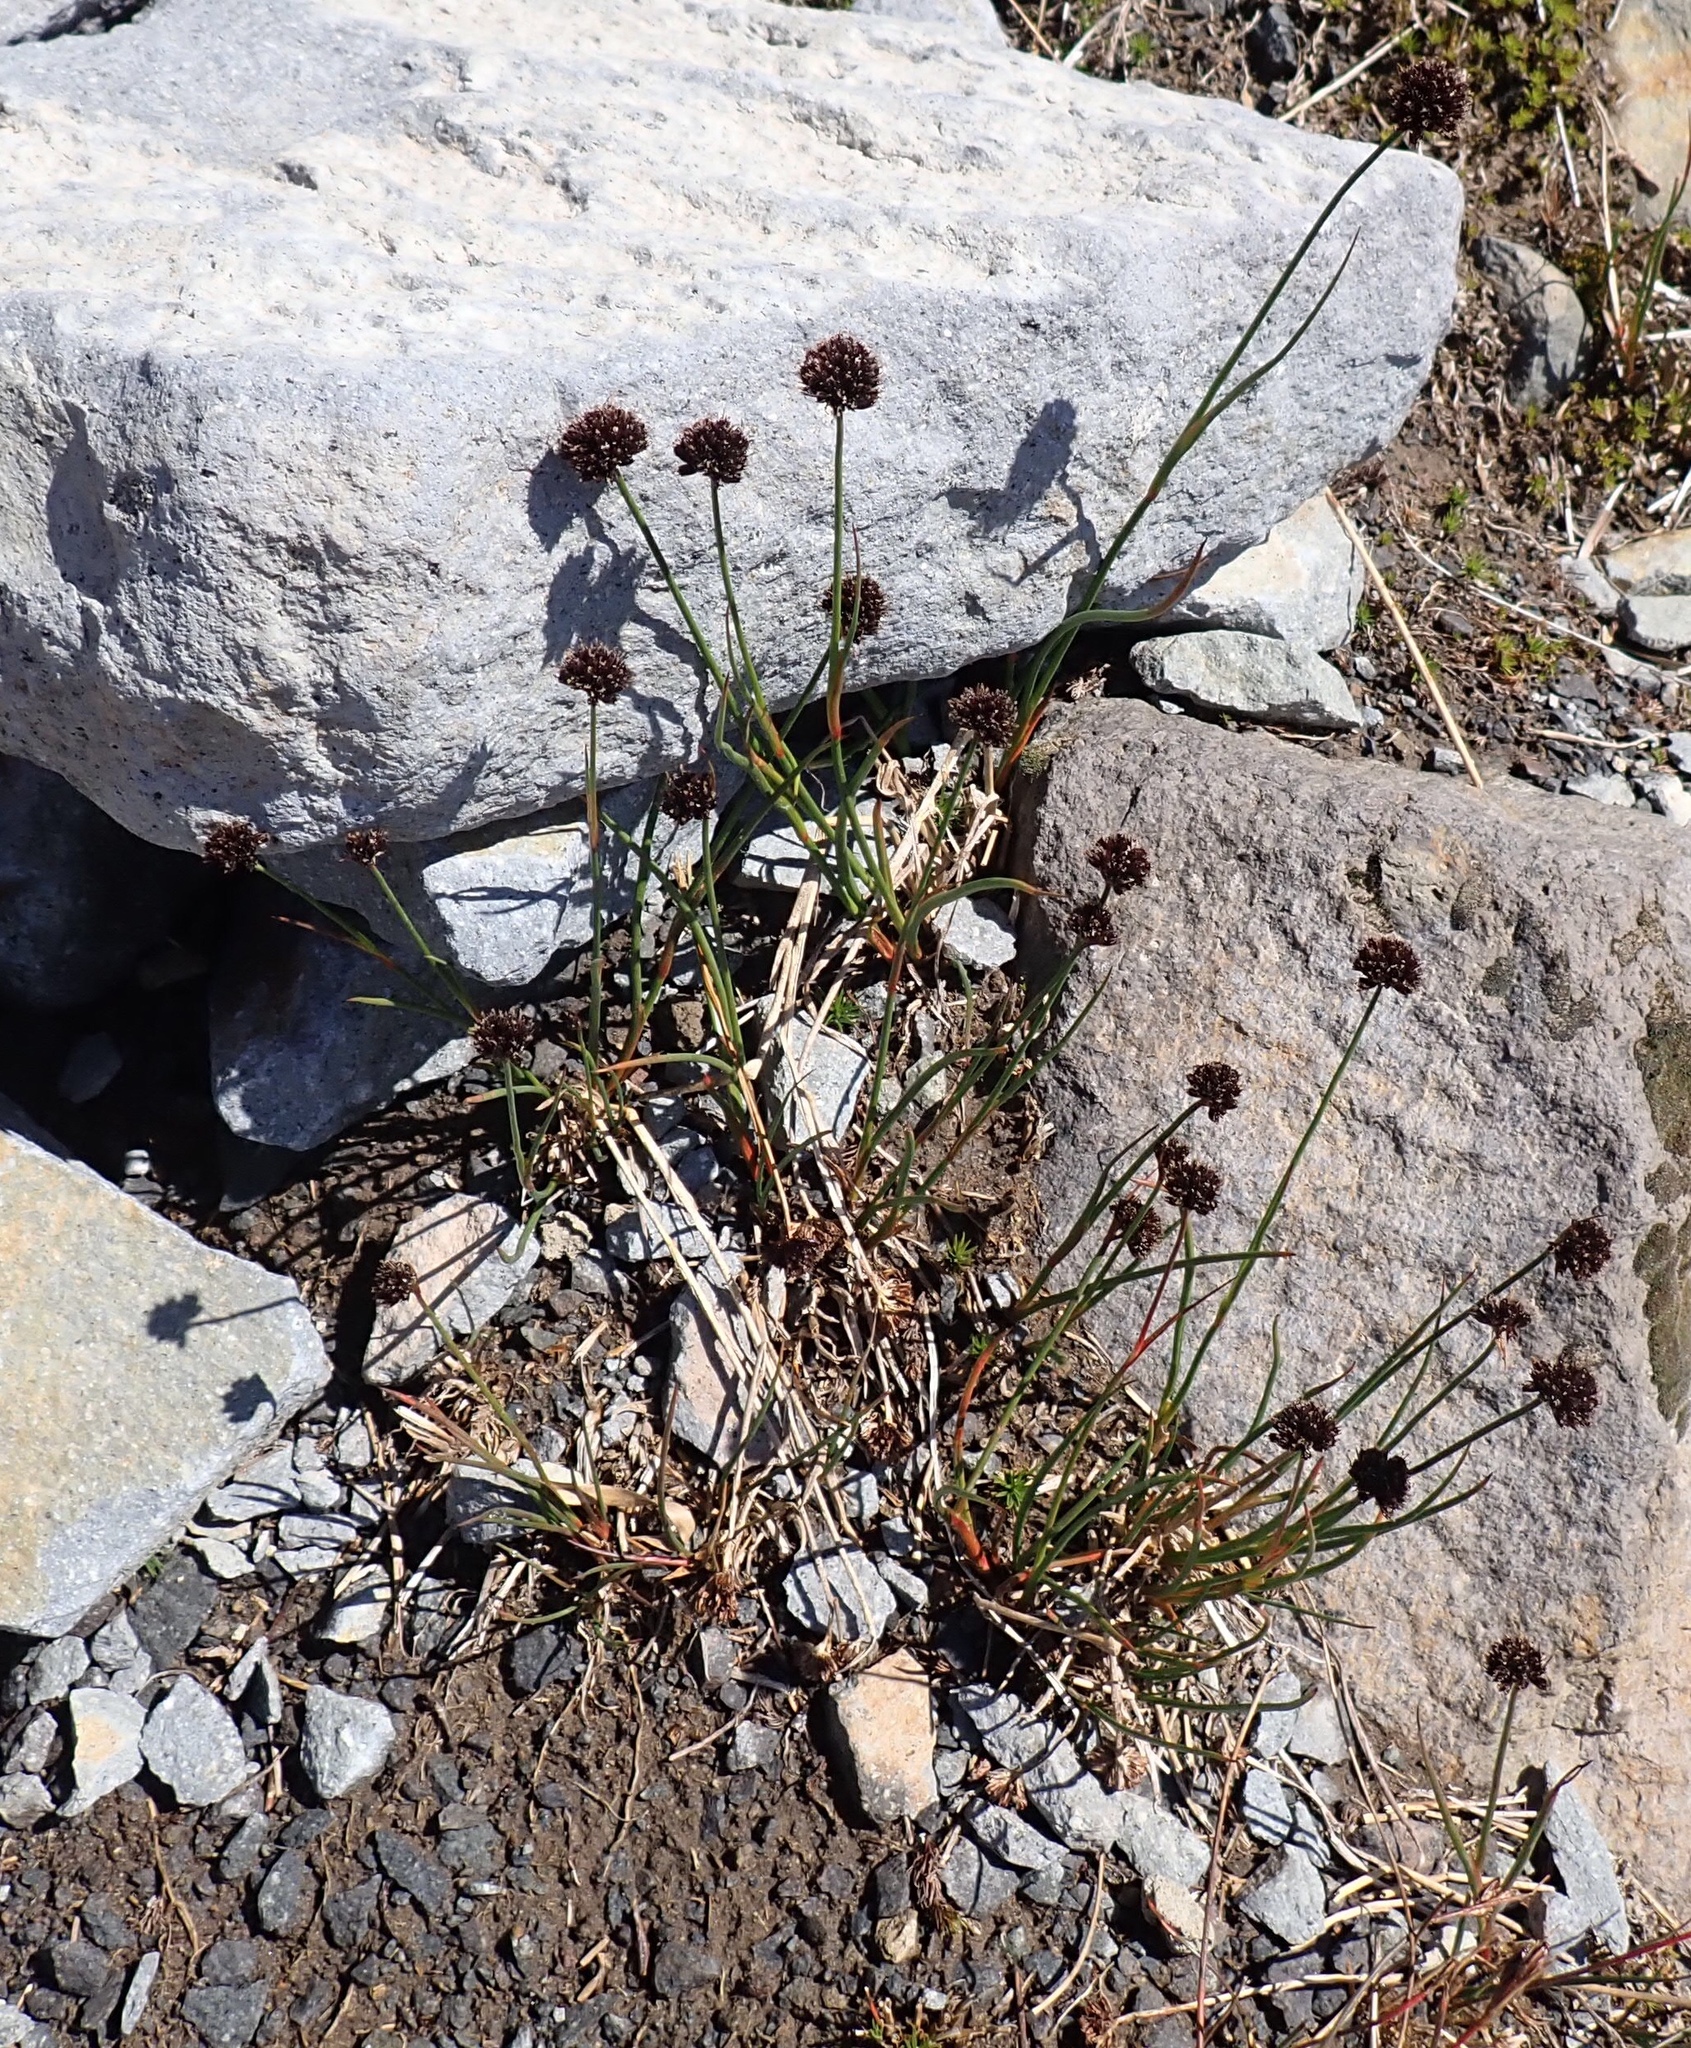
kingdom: Plantae
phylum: Tracheophyta
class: Liliopsida
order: Poales
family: Juncaceae
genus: Juncus
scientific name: Juncus mertensianus
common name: Merten's rush
